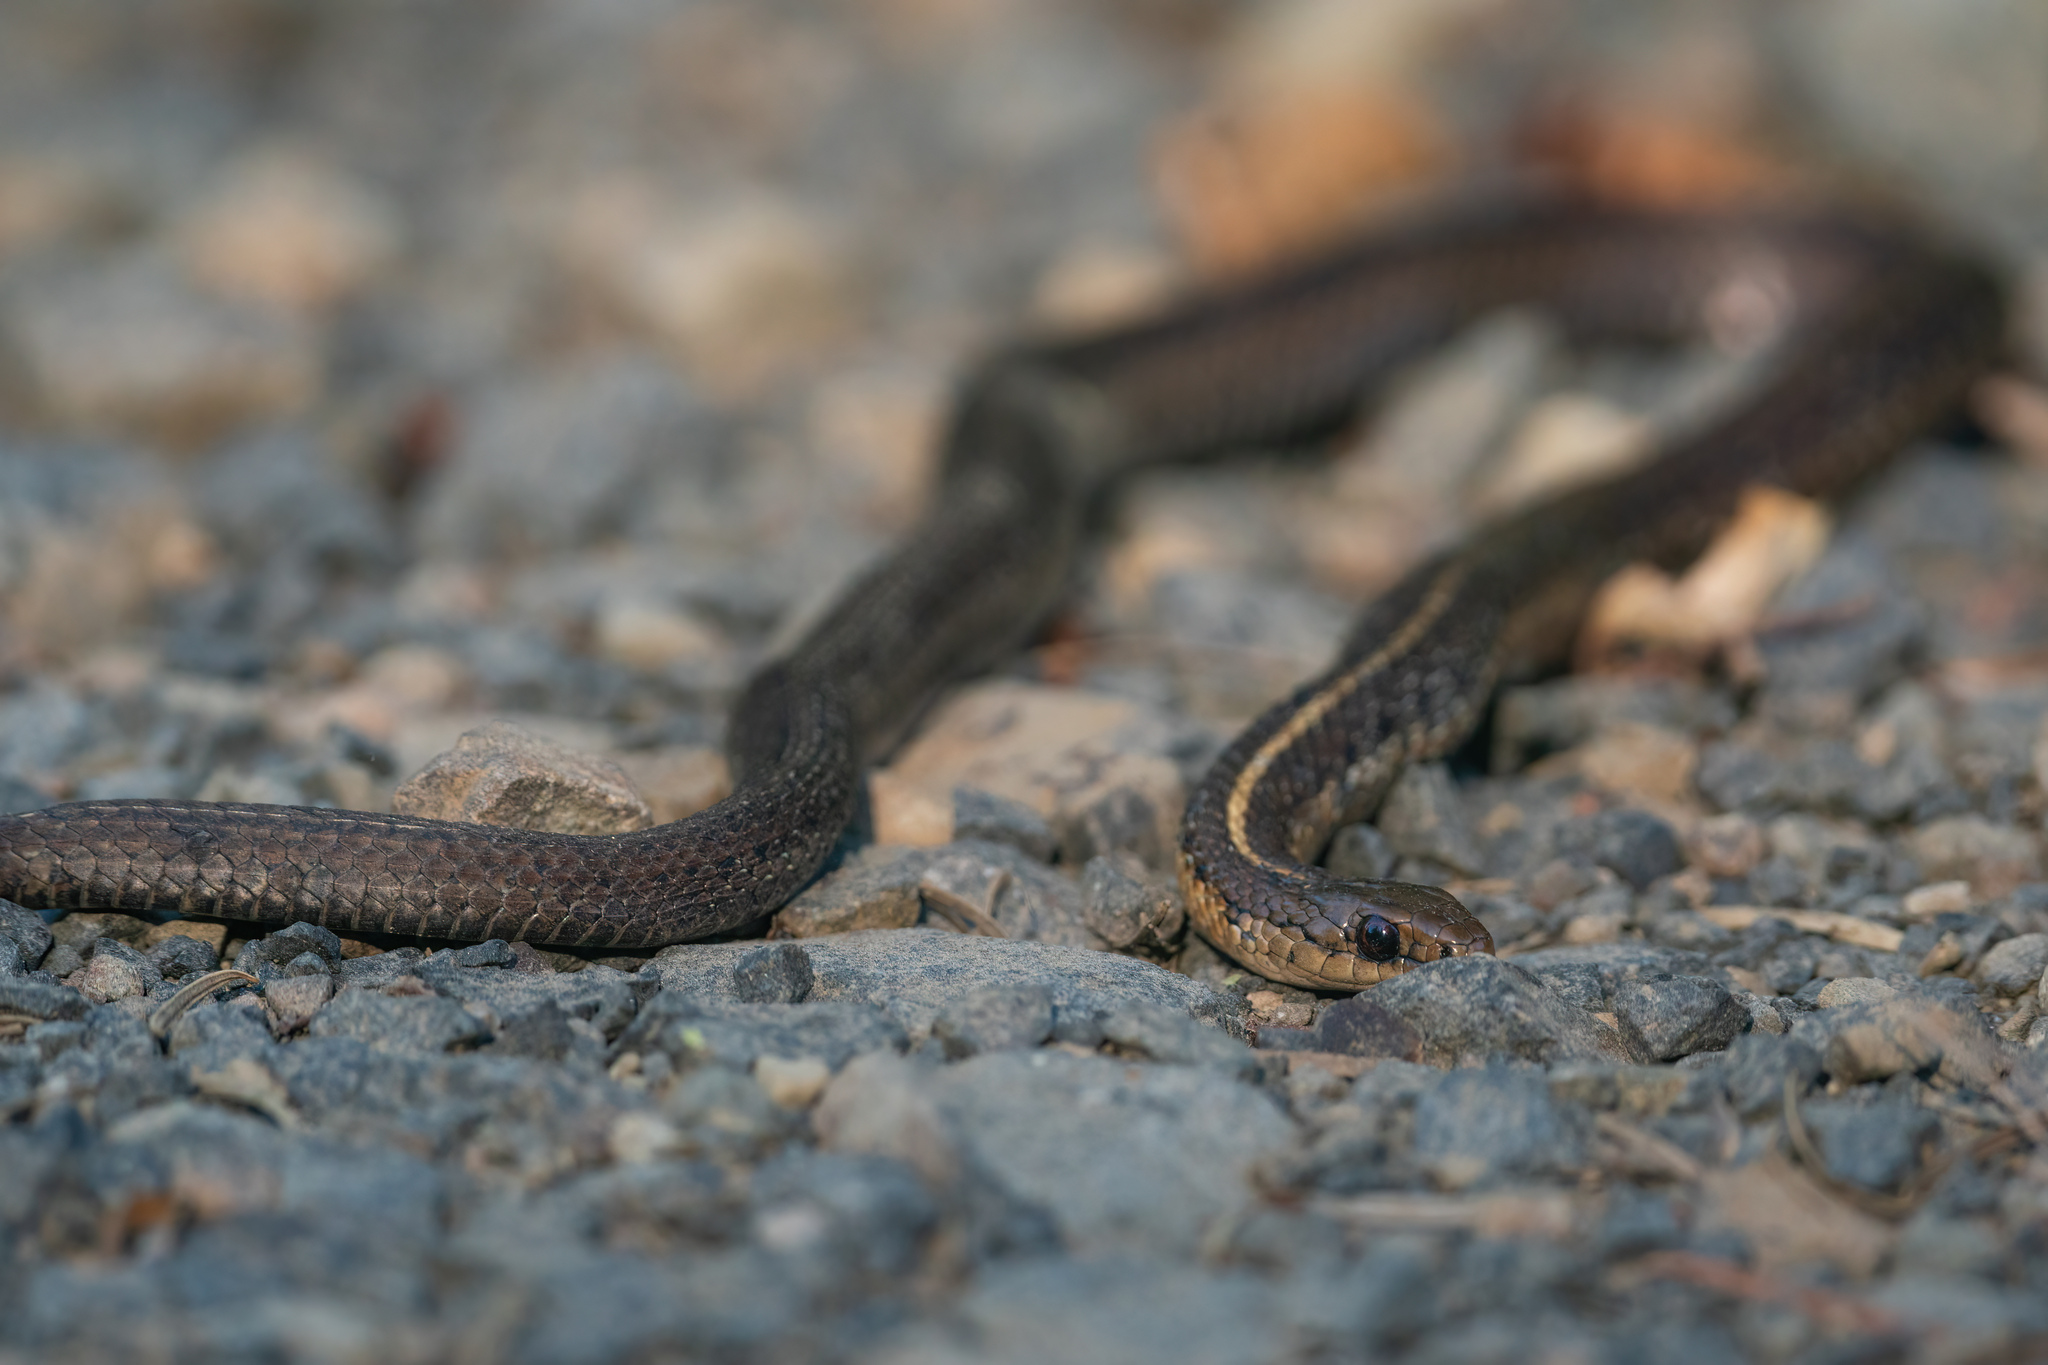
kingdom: Animalia
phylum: Chordata
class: Squamata
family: Colubridae
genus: Thamnophis
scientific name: Thamnophis ordinoides
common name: Northwestern garter snake
